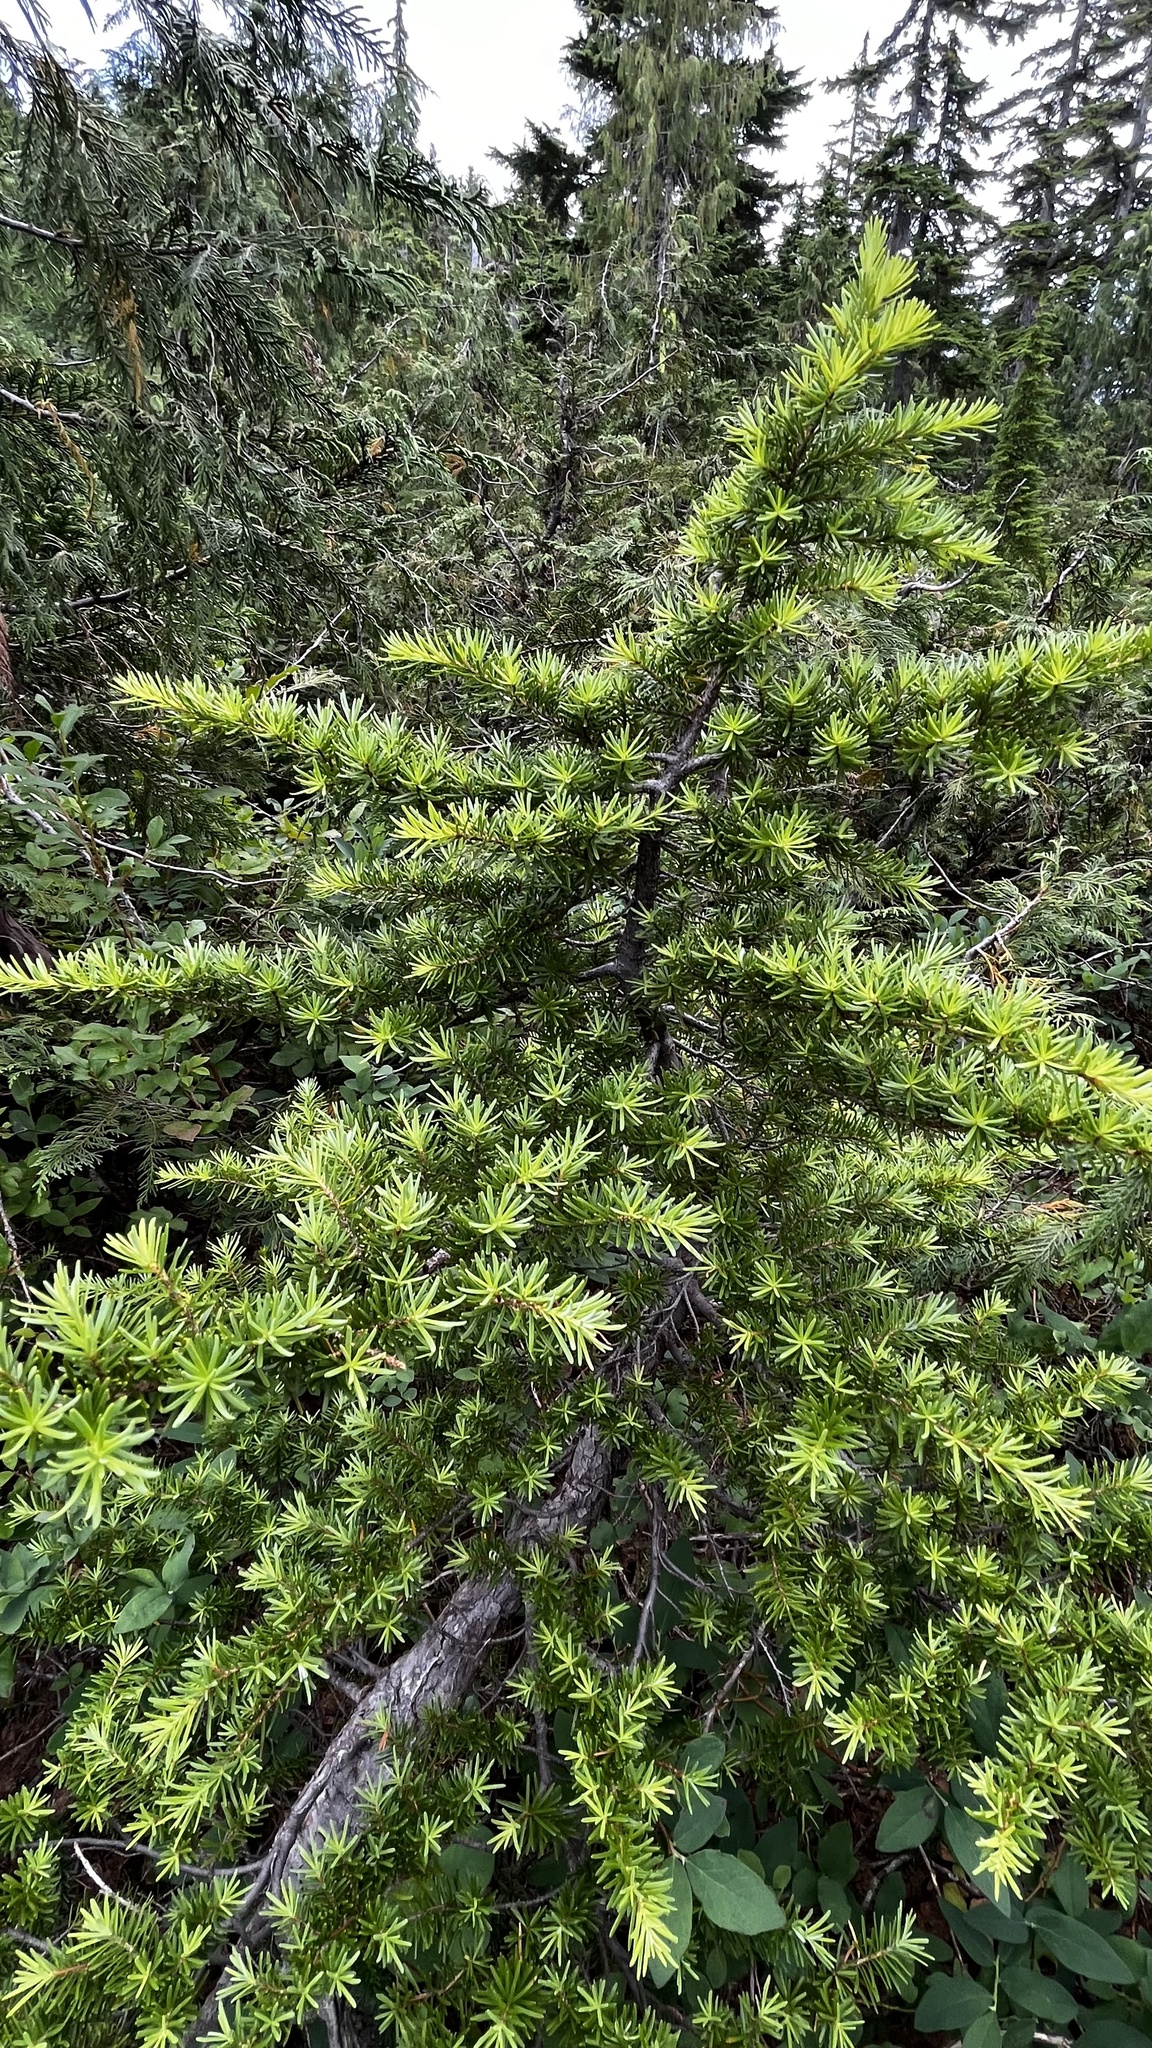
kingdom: Plantae
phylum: Tracheophyta
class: Pinopsida
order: Pinales
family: Pinaceae
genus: Tsuga
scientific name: Tsuga mertensiana
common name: Mountain hemlock
